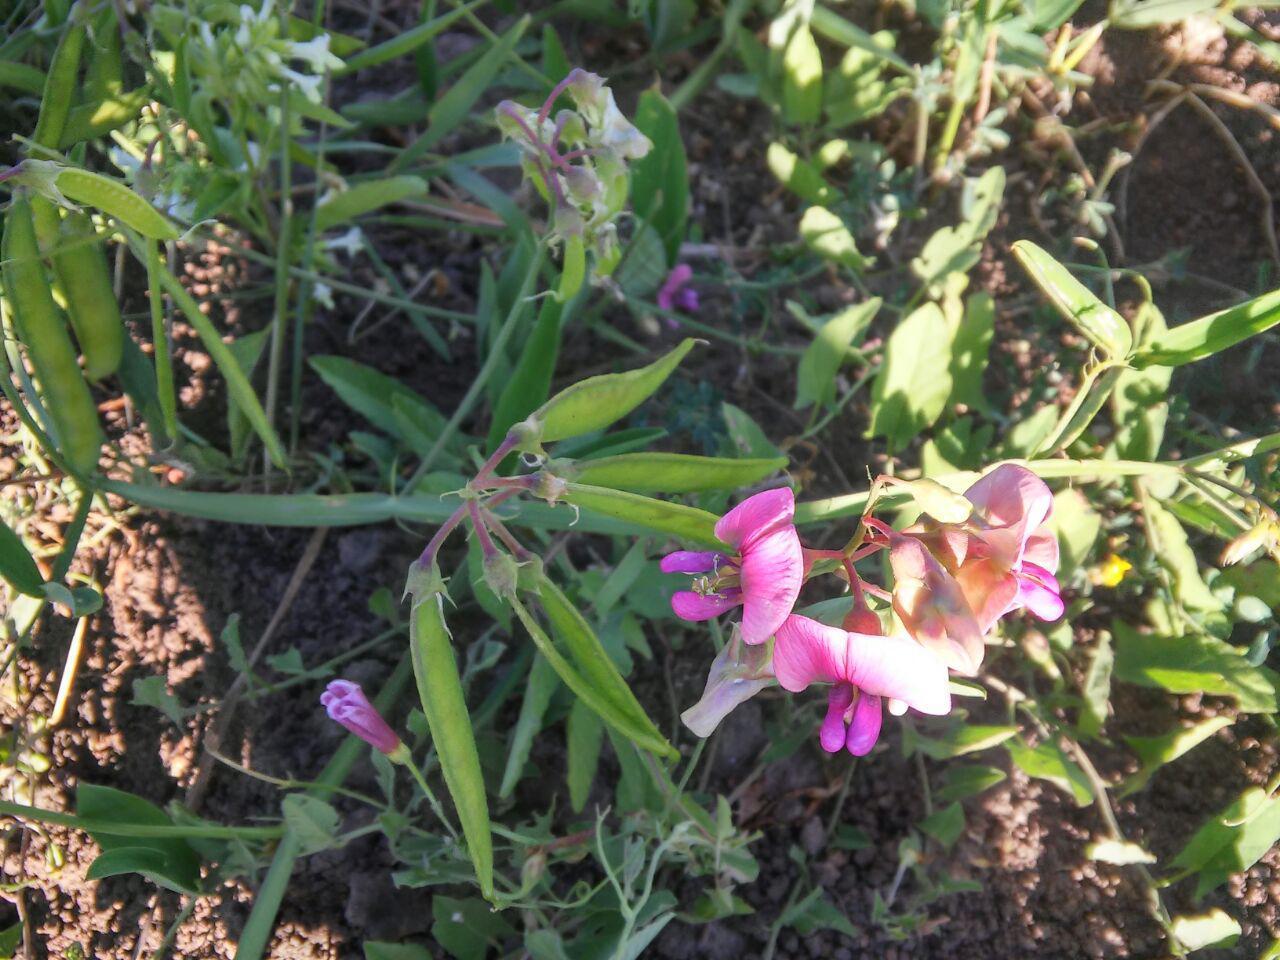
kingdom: Plantae
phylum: Tracheophyta
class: Magnoliopsida
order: Fabales
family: Fabaceae
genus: Lathyrus
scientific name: Lathyrus sylvestris
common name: Flat pea
